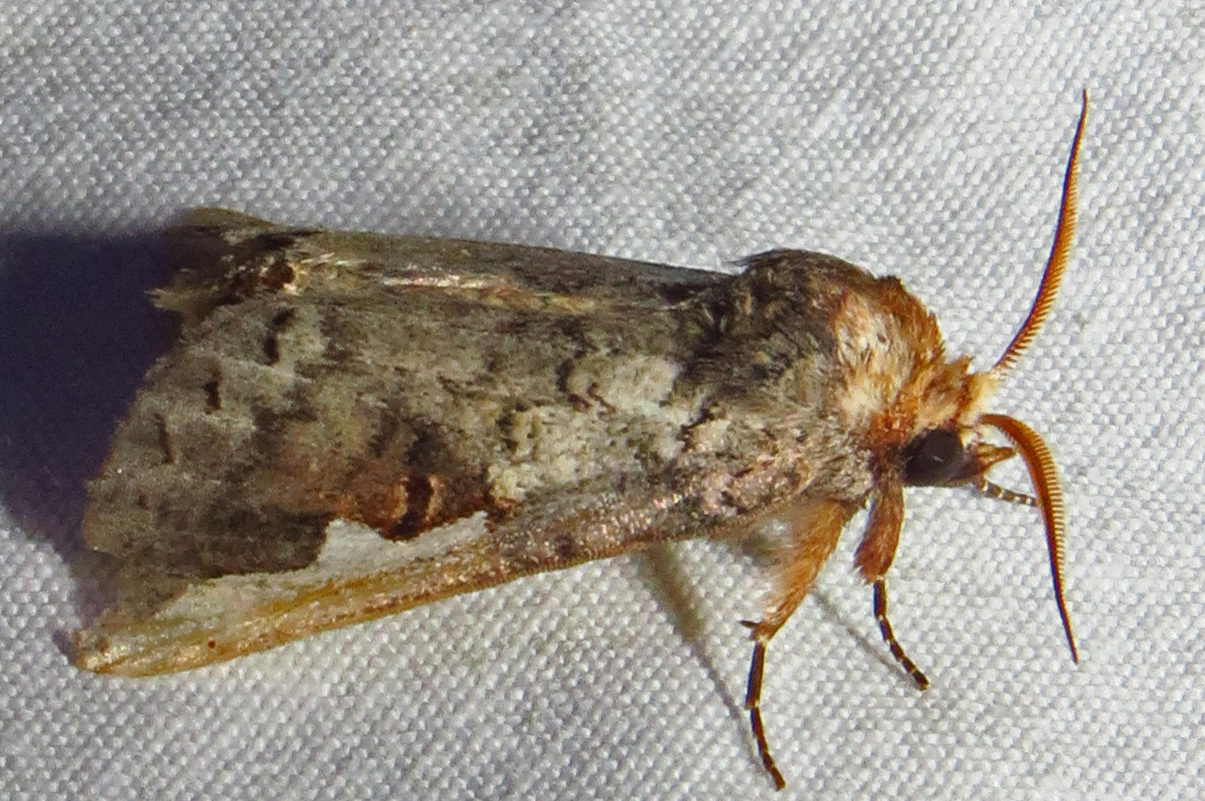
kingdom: Animalia
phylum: Arthropoda
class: Insecta
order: Lepidoptera
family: Notodontidae
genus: Symmerista
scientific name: Symmerista
